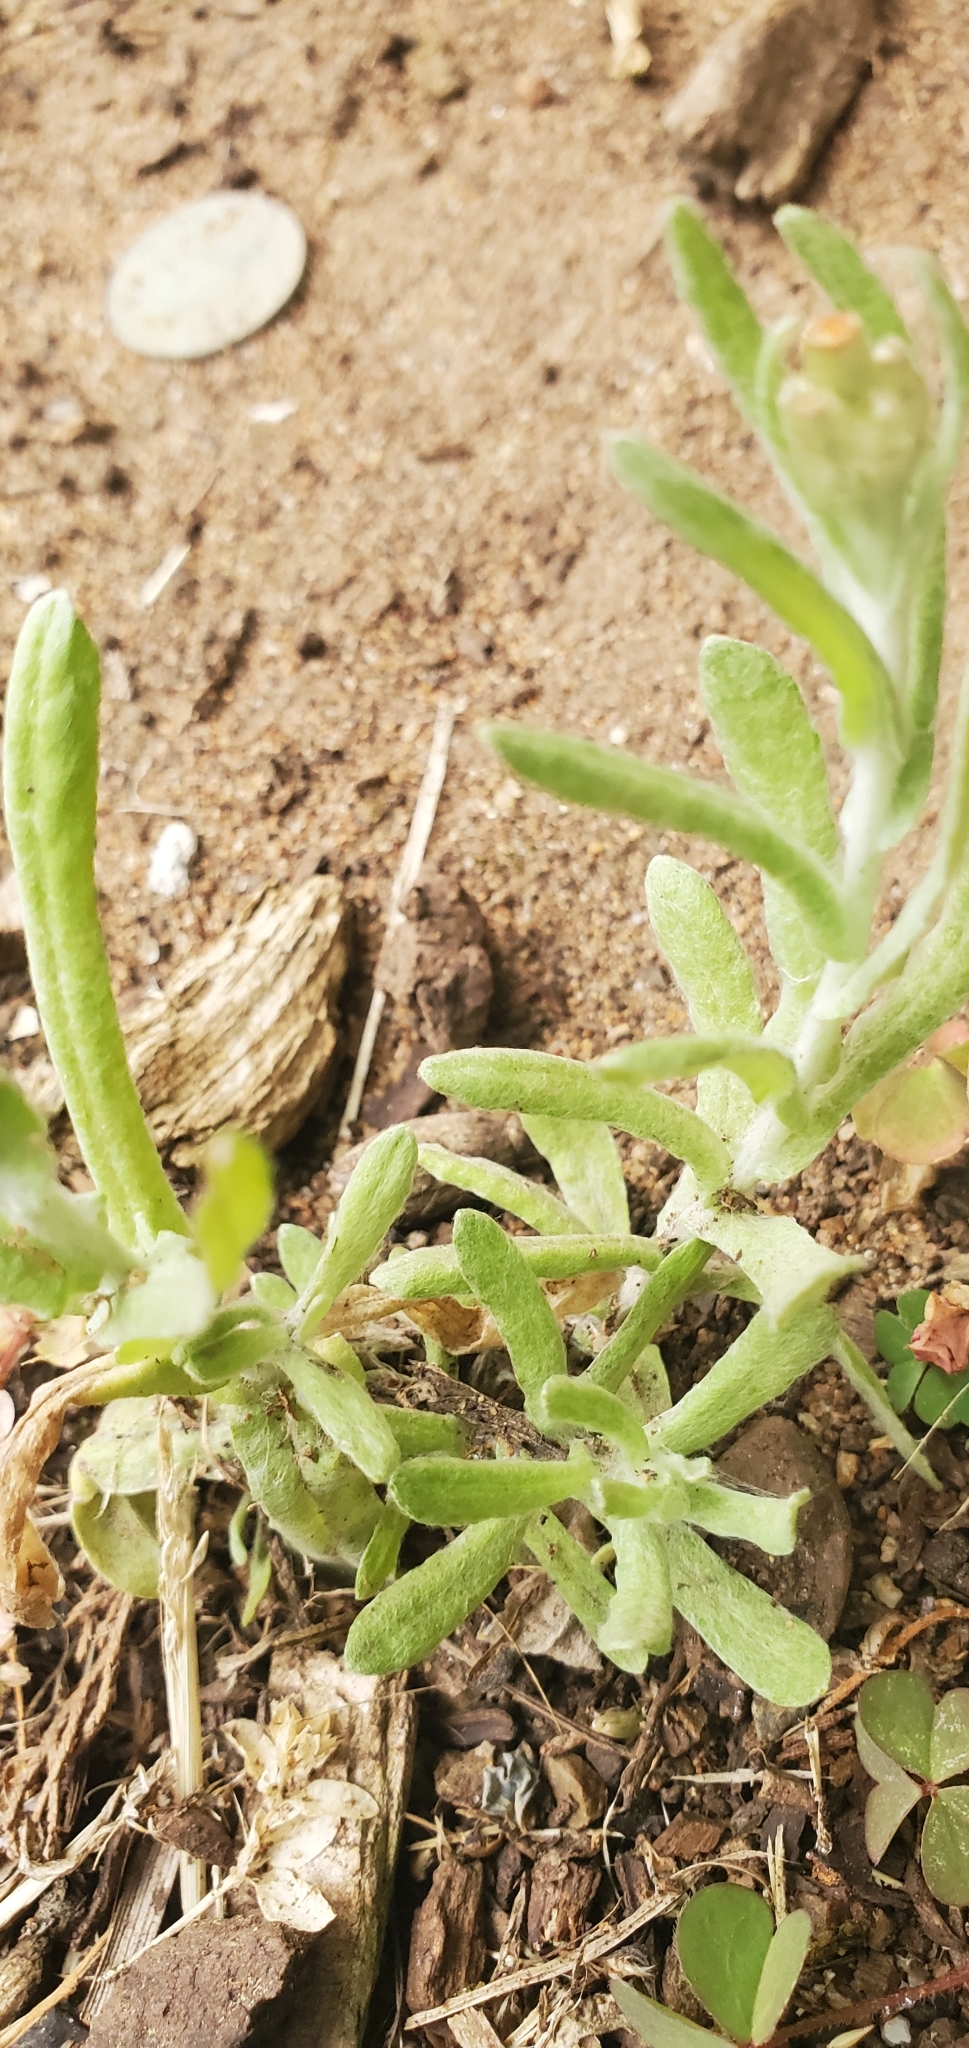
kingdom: Plantae
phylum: Tracheophyta
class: Magnoliopsida
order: Asterales
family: Asteraceae
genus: Helichrysum
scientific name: Helichrysum luteoalbum
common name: Daisy
